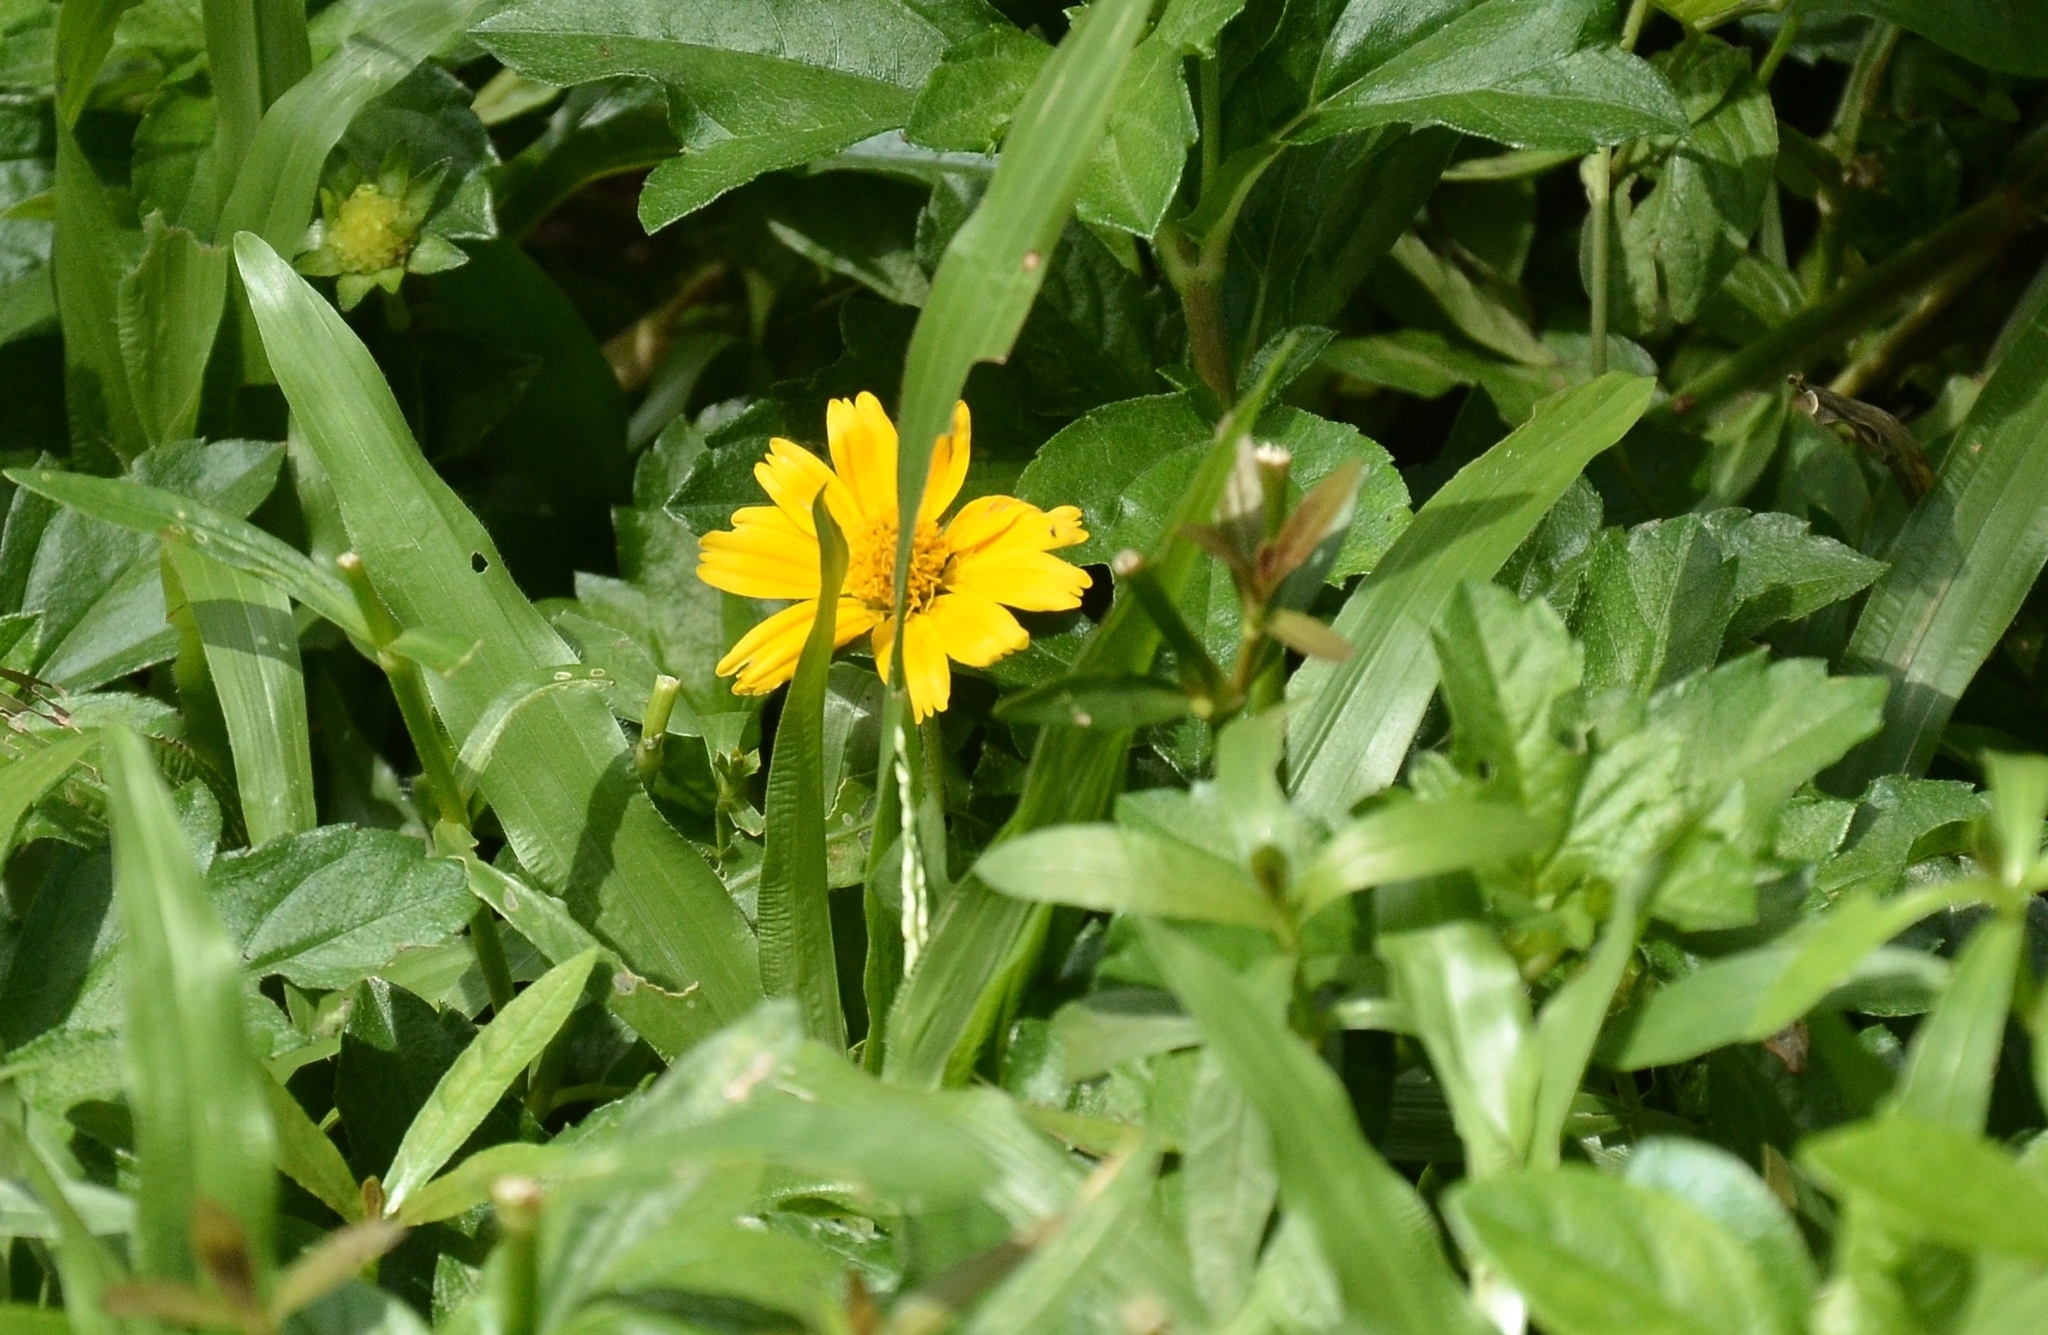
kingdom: Plantae
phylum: Tracheophyta
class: Magnoliopsida
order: Asterales
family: Asteraceae
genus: Sphagneticola
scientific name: Sphagneticola trilobata
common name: Bay biscayne creeping-oxeye
